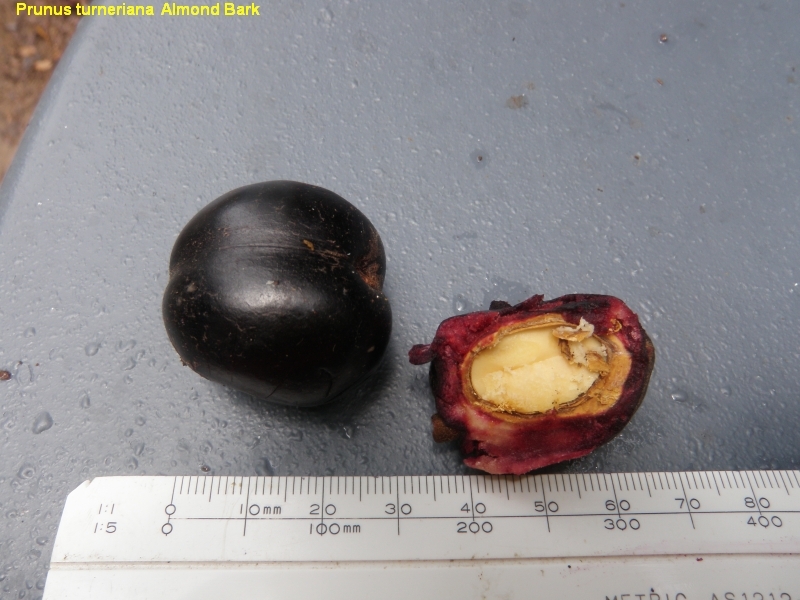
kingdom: Plantae
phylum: Tracheophyta
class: Magnoliopsida
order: Rosales
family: Rosaceae
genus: Prunus
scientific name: Prunus turneriana
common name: Wild almond
